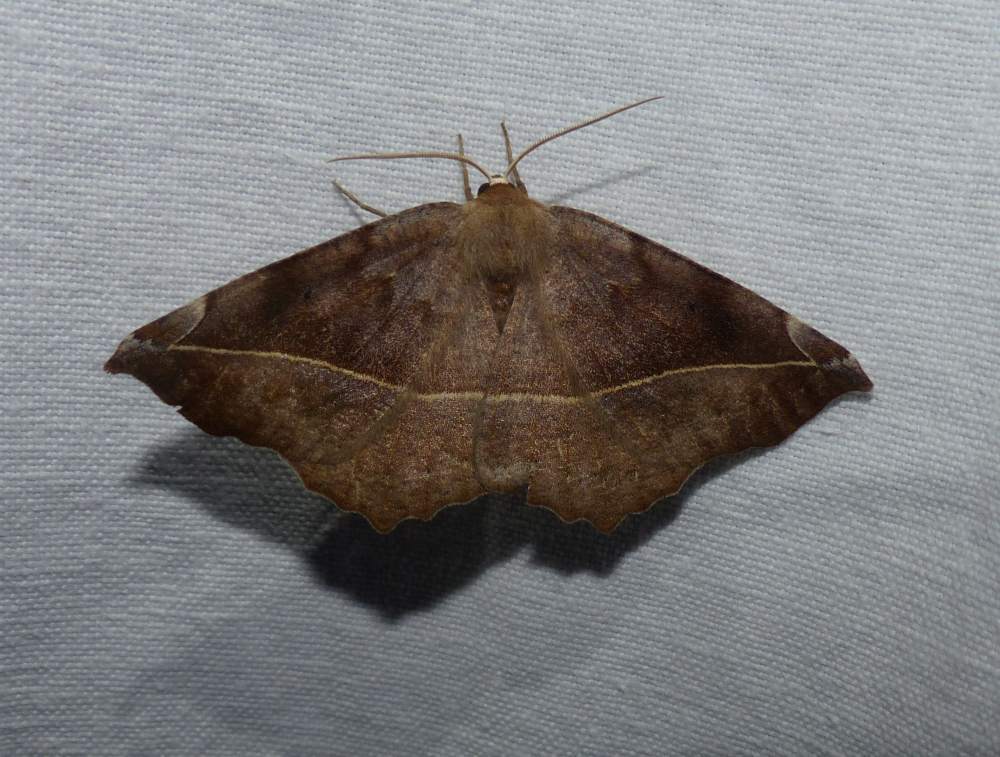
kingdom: Animalia
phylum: Arthropoda
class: Insecta
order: Lepidoptera
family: Geometridae
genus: Eutrapela
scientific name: Eutrapela clemataria
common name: Curved-toothed geometer
